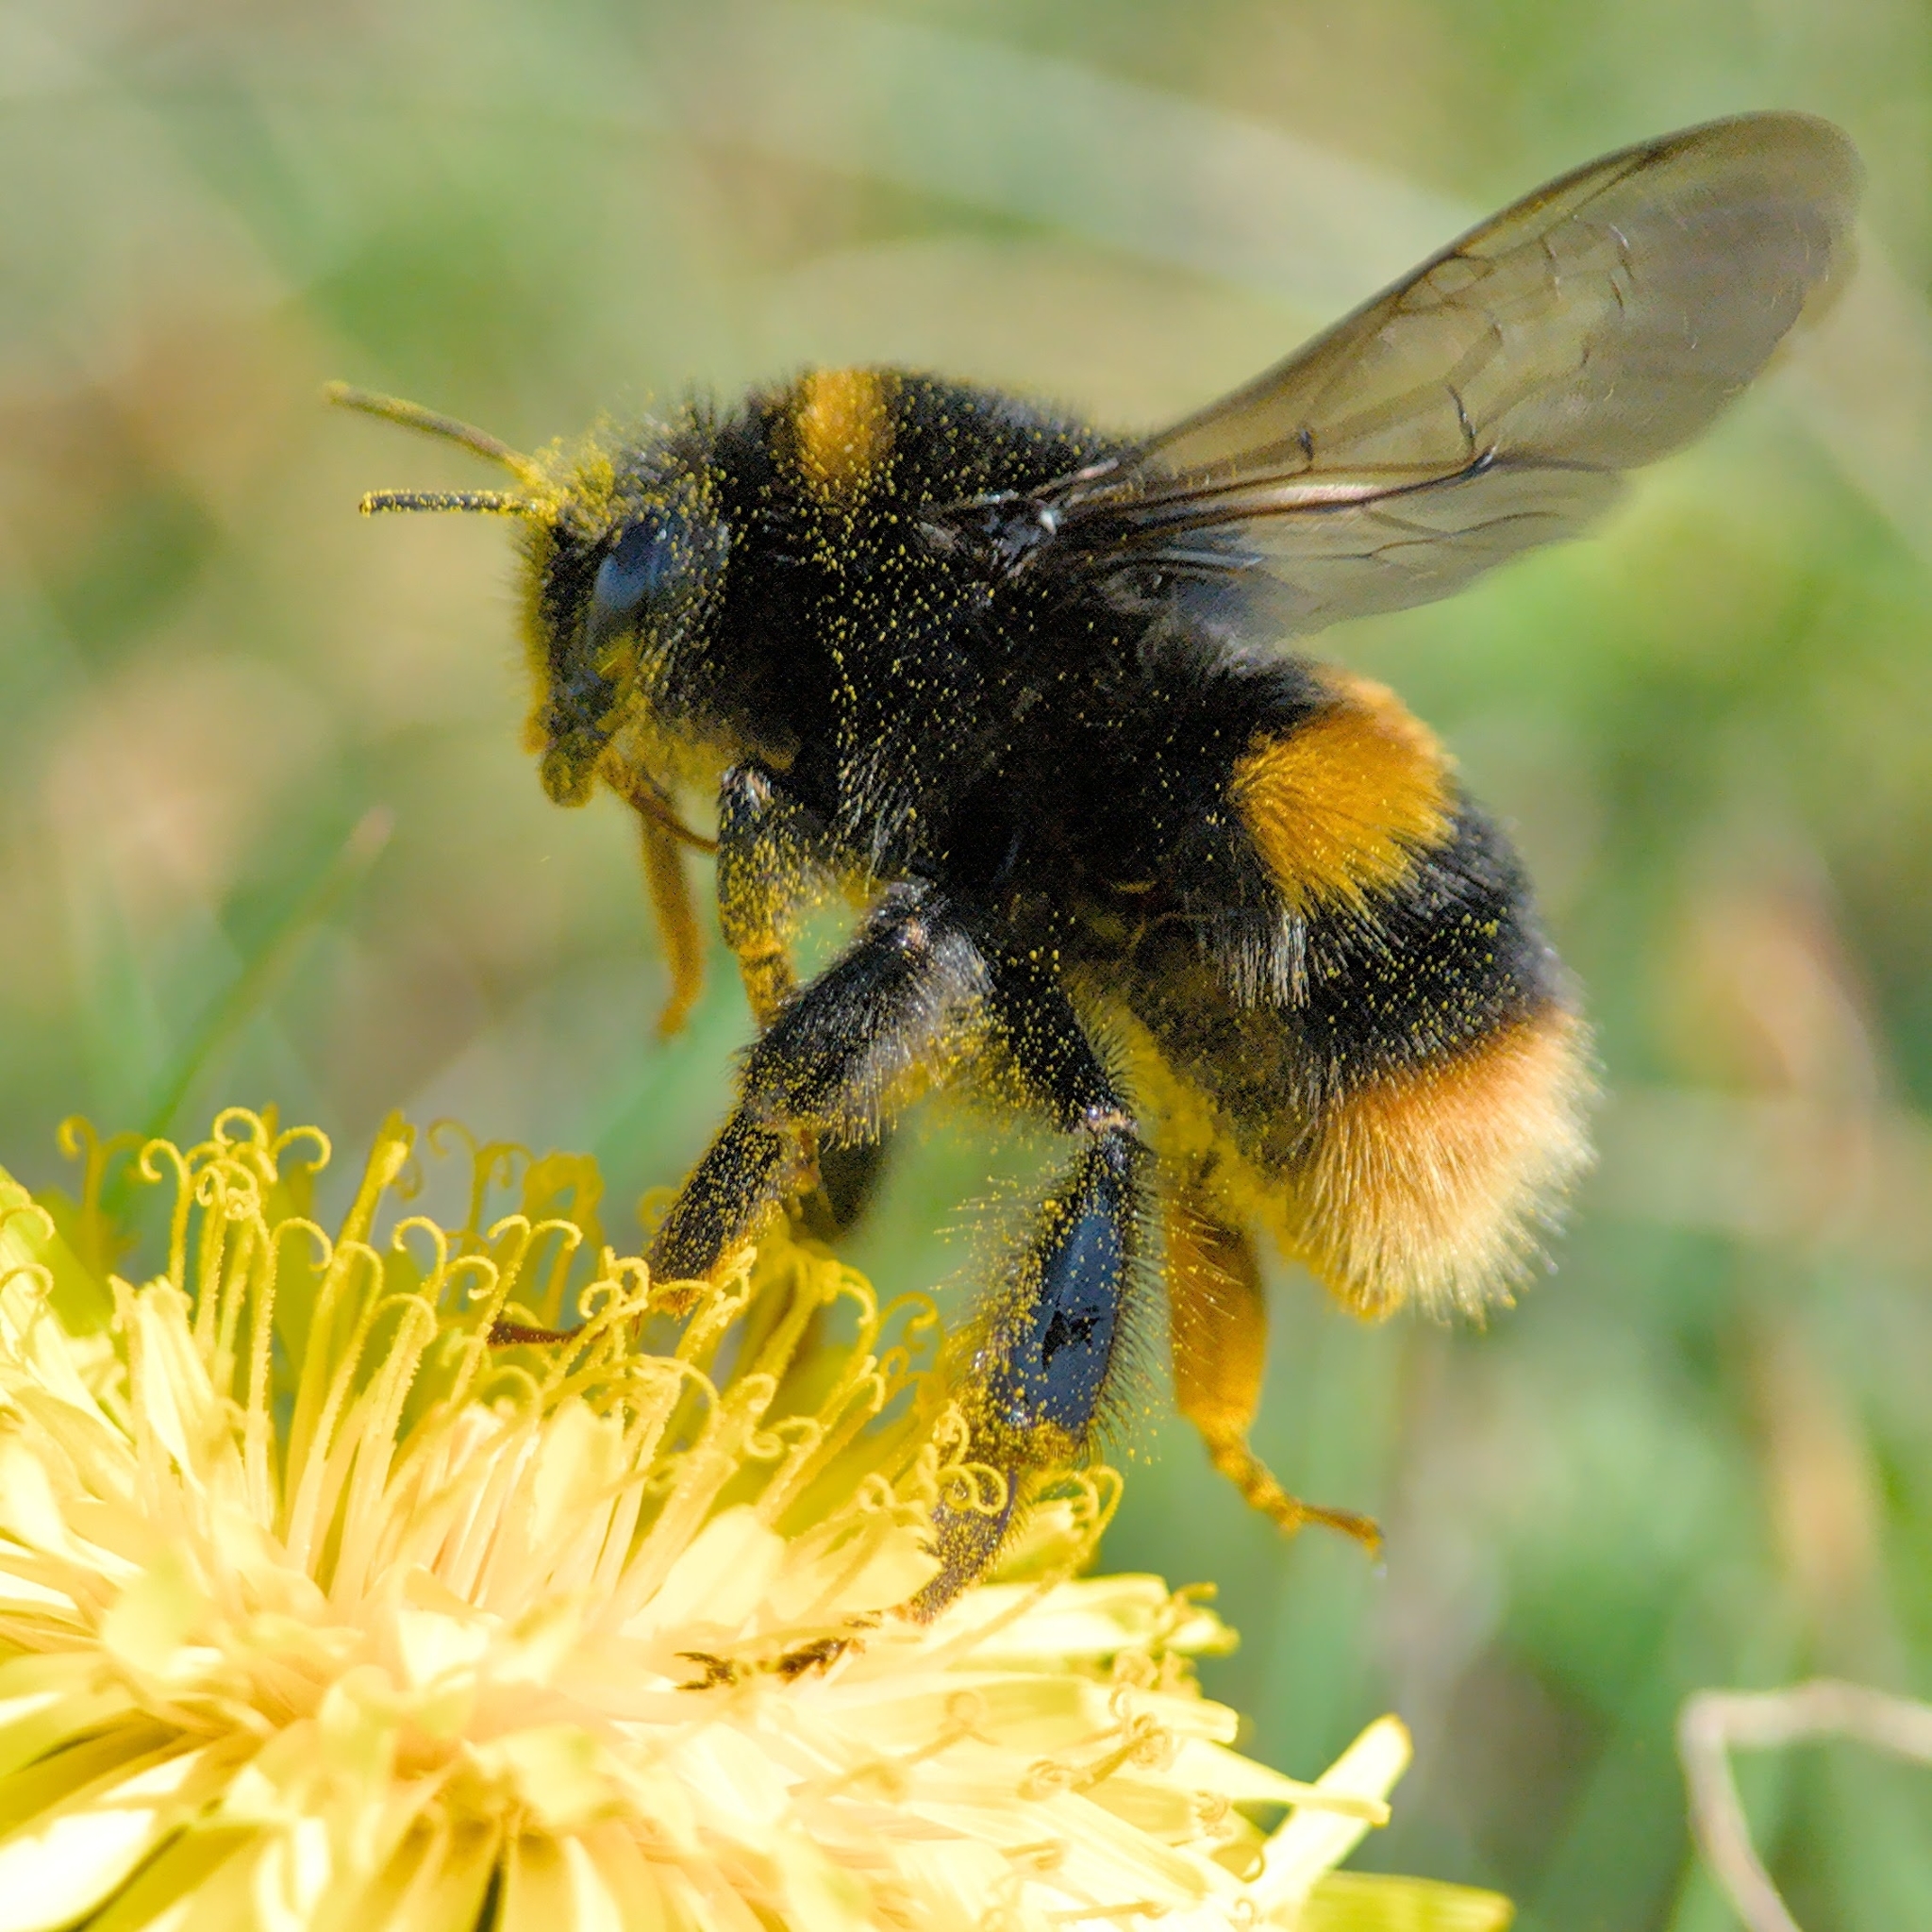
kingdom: Animalia
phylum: Arthropoda
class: Insecta
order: Hymenoptera
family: Apidae
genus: Bombus
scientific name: Bombus terrestris
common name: Buff-tailed bumblebee
